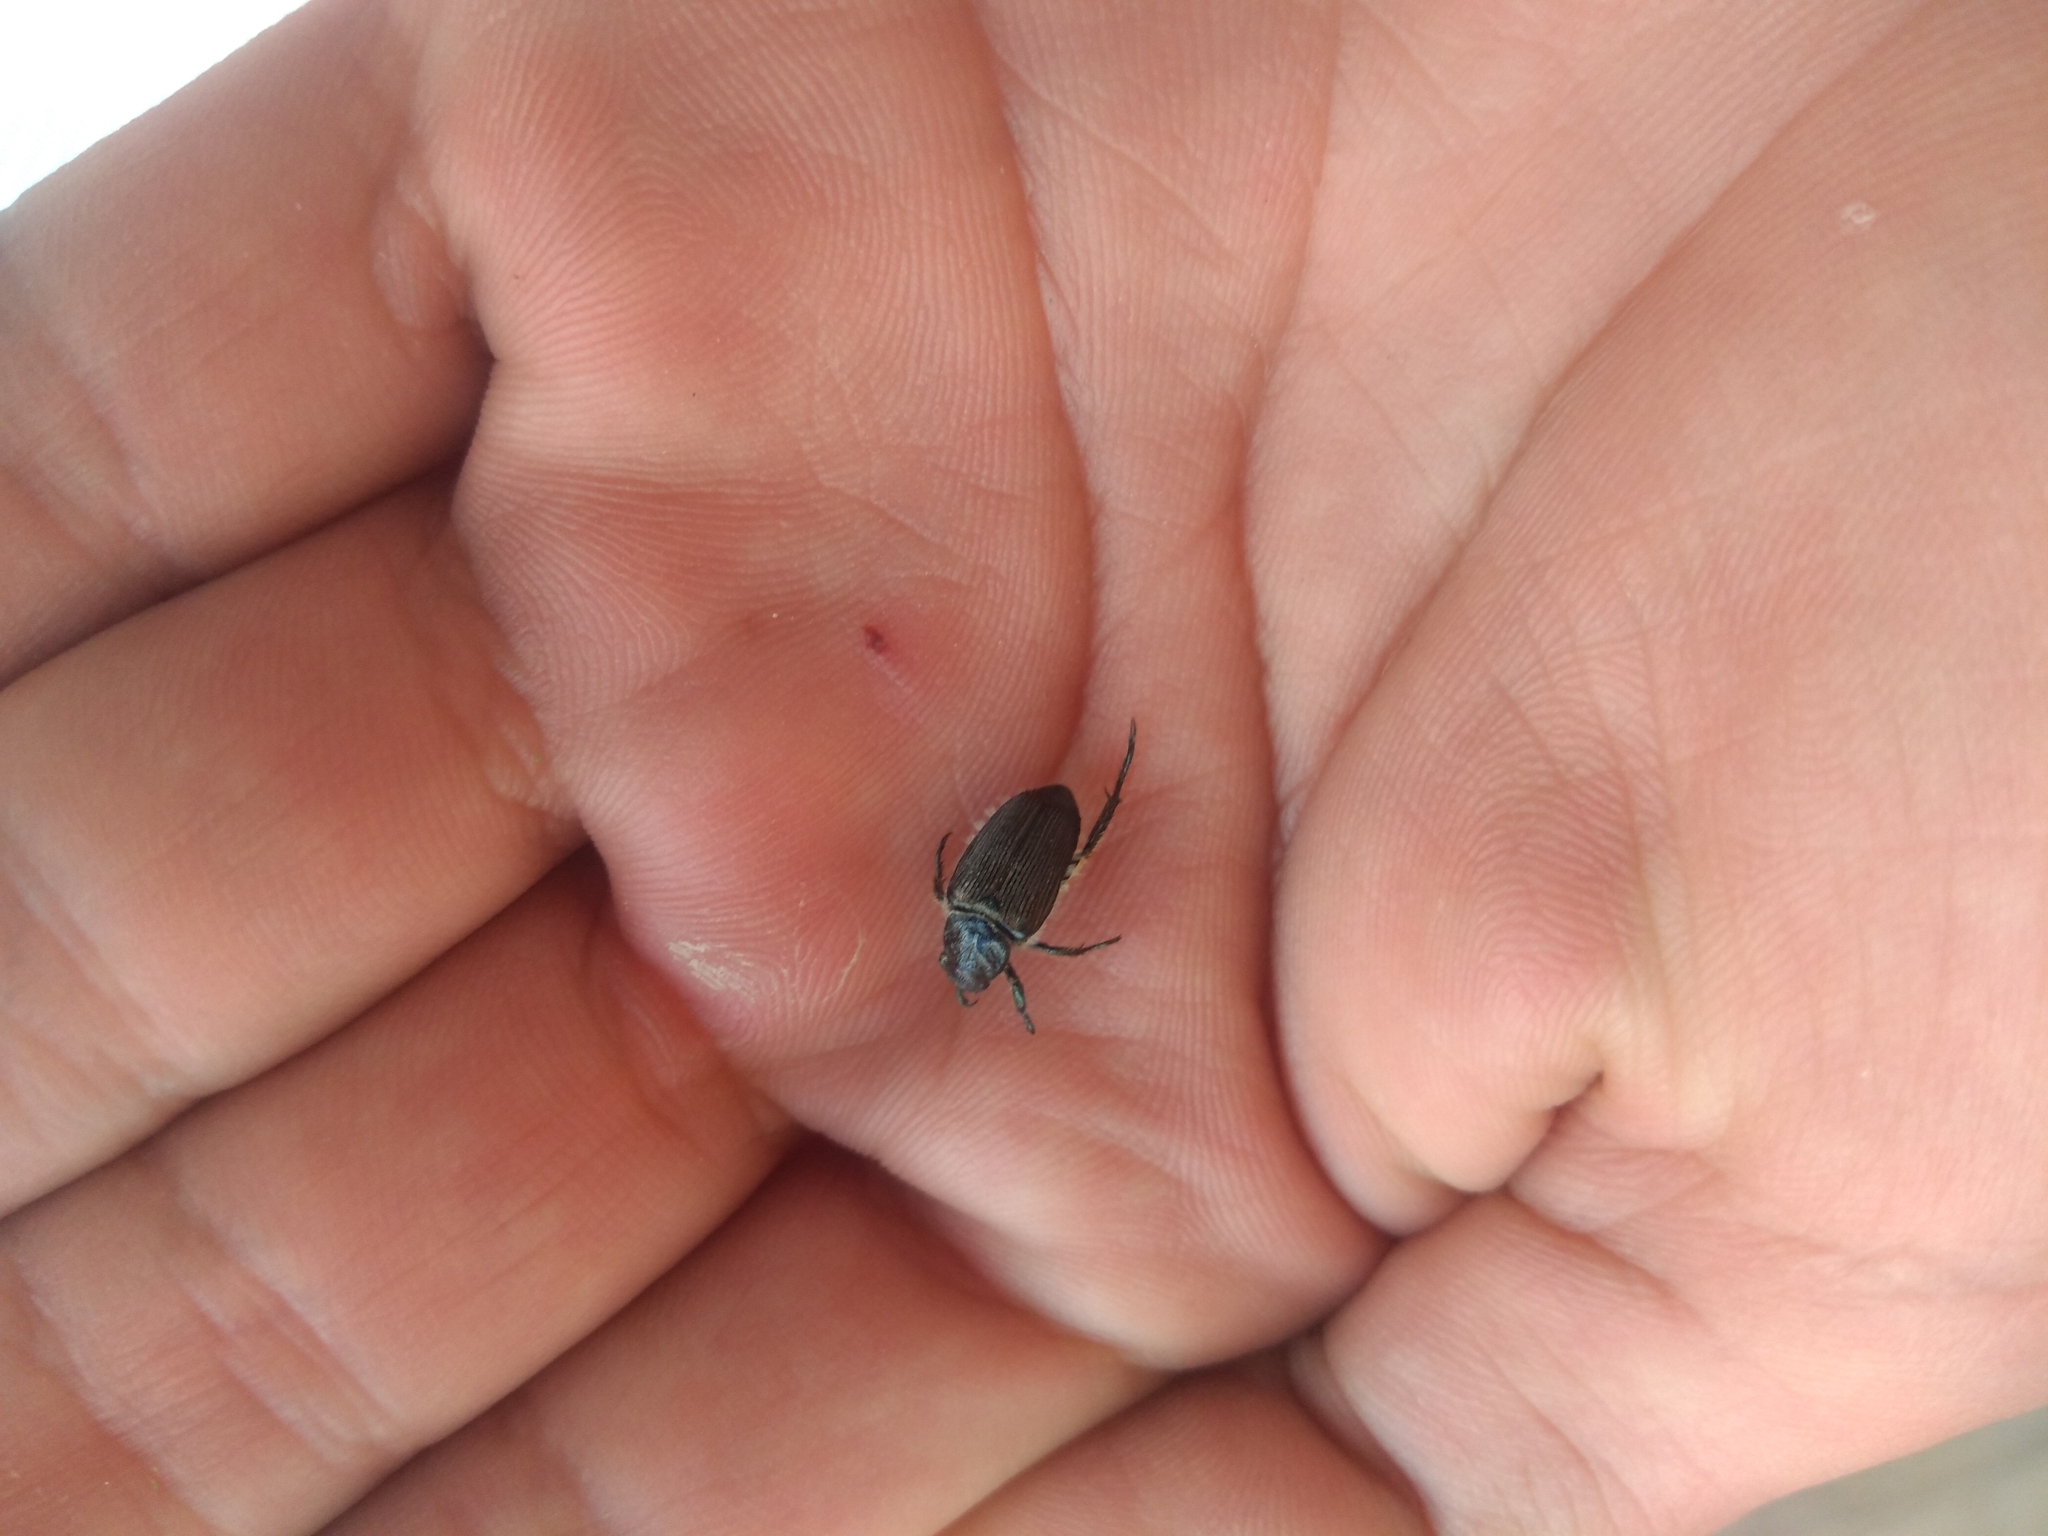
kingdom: Animalia
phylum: Arthropoda
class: Insecta
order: Coleoptera
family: Scarabaeidae
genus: Strigoderma
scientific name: Strigoderma sulcipennis
